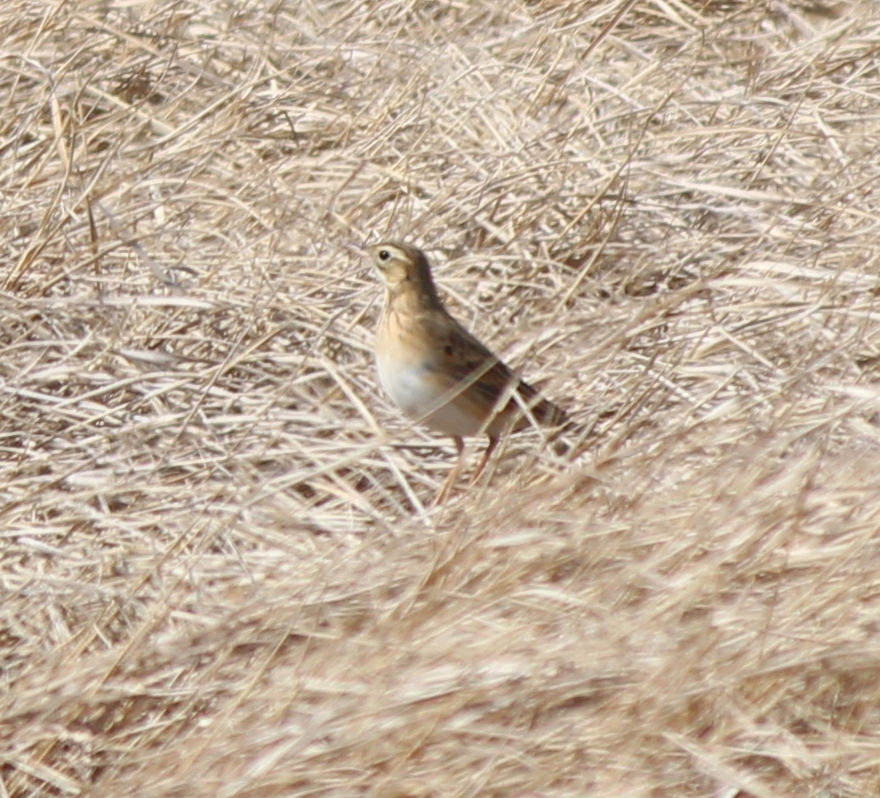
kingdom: Animalia
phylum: Chordata
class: Aves
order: Passeriformes
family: Motacillidae
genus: Anthus
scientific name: Anthus richardi
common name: Richard's pipit
